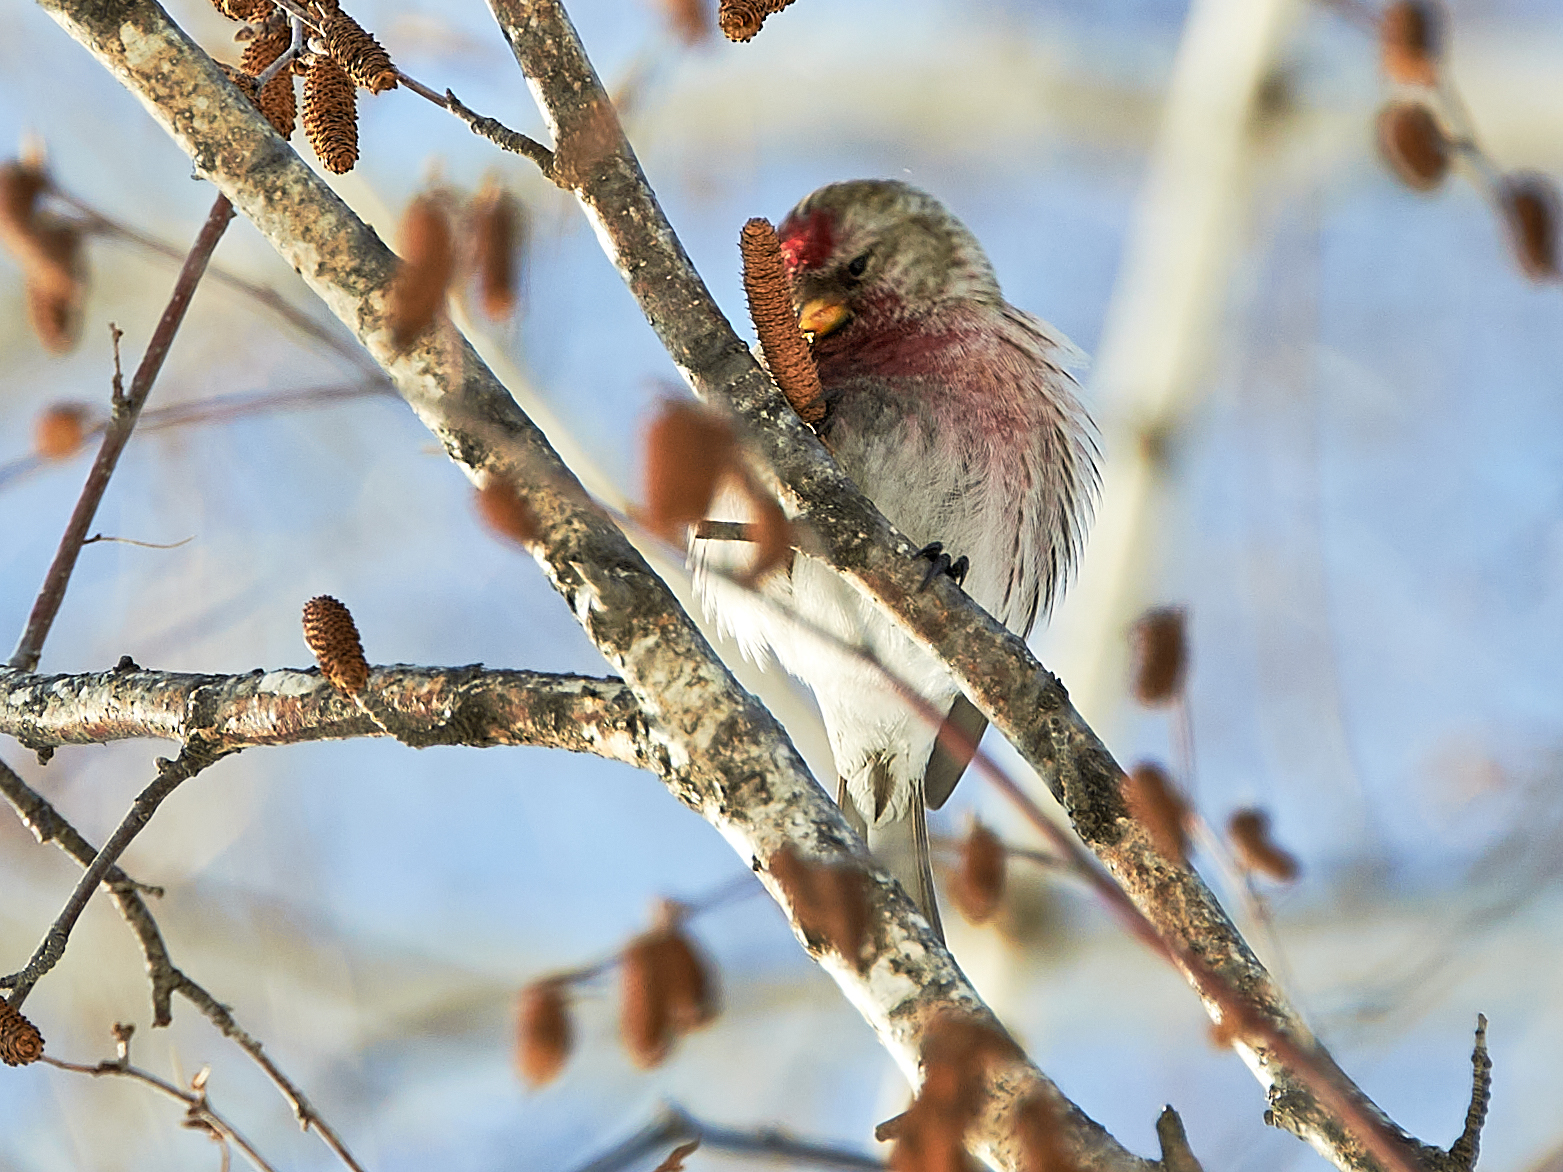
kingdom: Animalia
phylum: Chordata
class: Aves
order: Passeriformes
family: Fringillidae
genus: Acanthis
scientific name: Acanthis flammea
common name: Common redpoll
